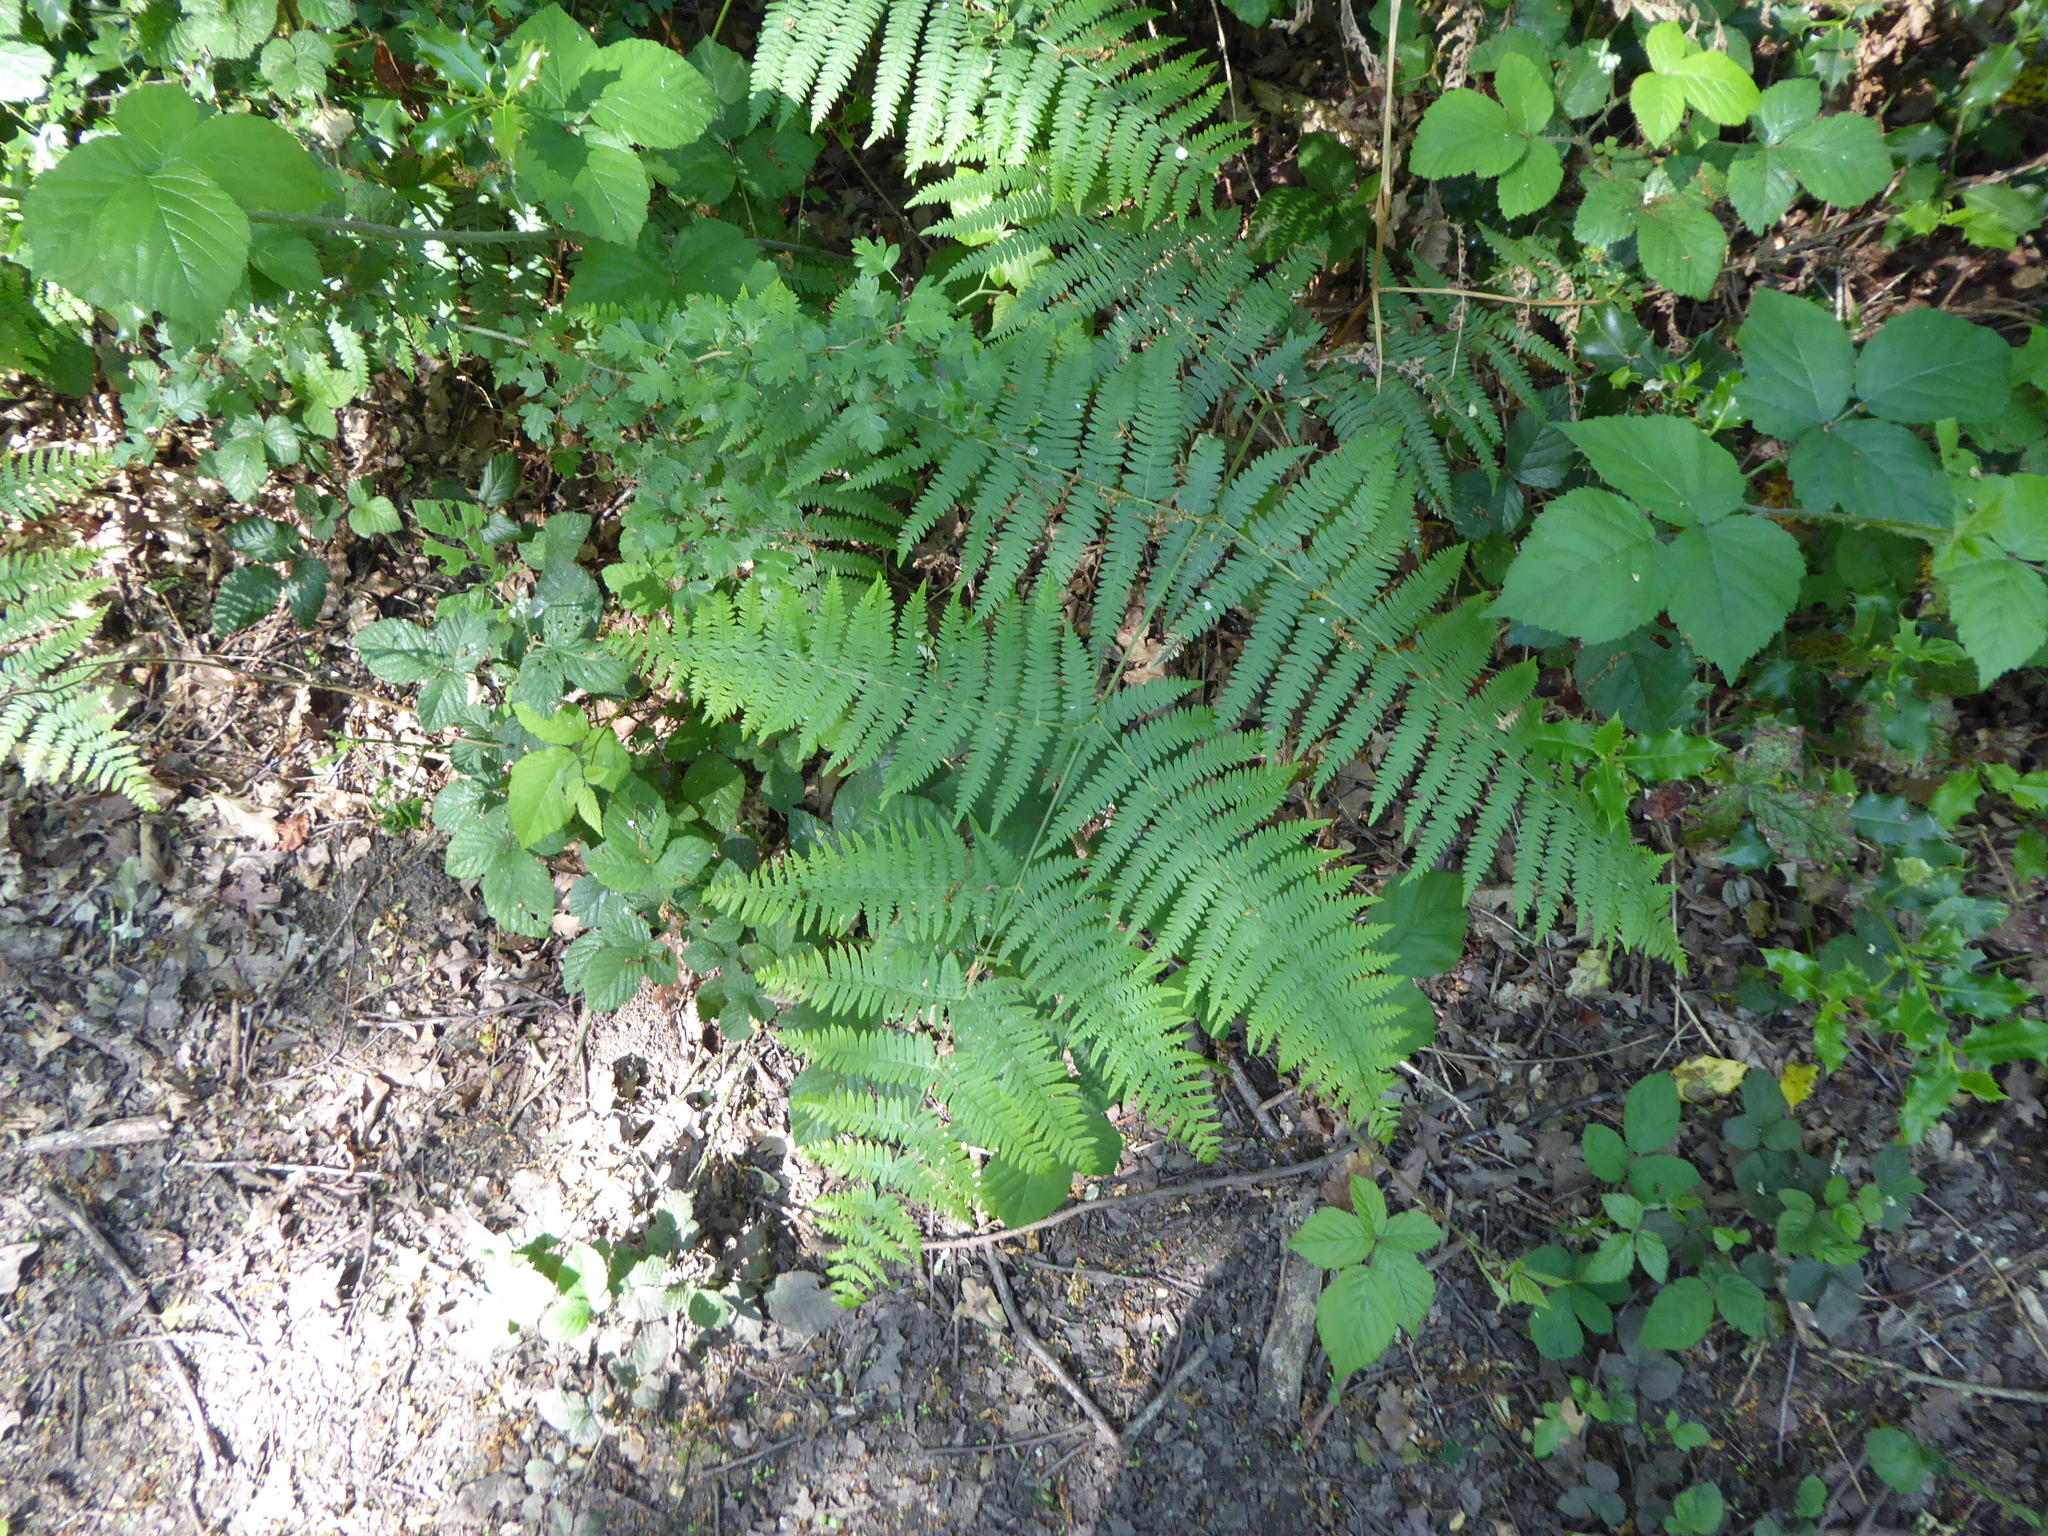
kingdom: Plantae
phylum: Tracheophyta
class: Polypodiopsida
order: Polypodiales
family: Dennstaedtiaceae
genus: Pteridium
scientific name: Pteridium aquilinum
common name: Bracken
